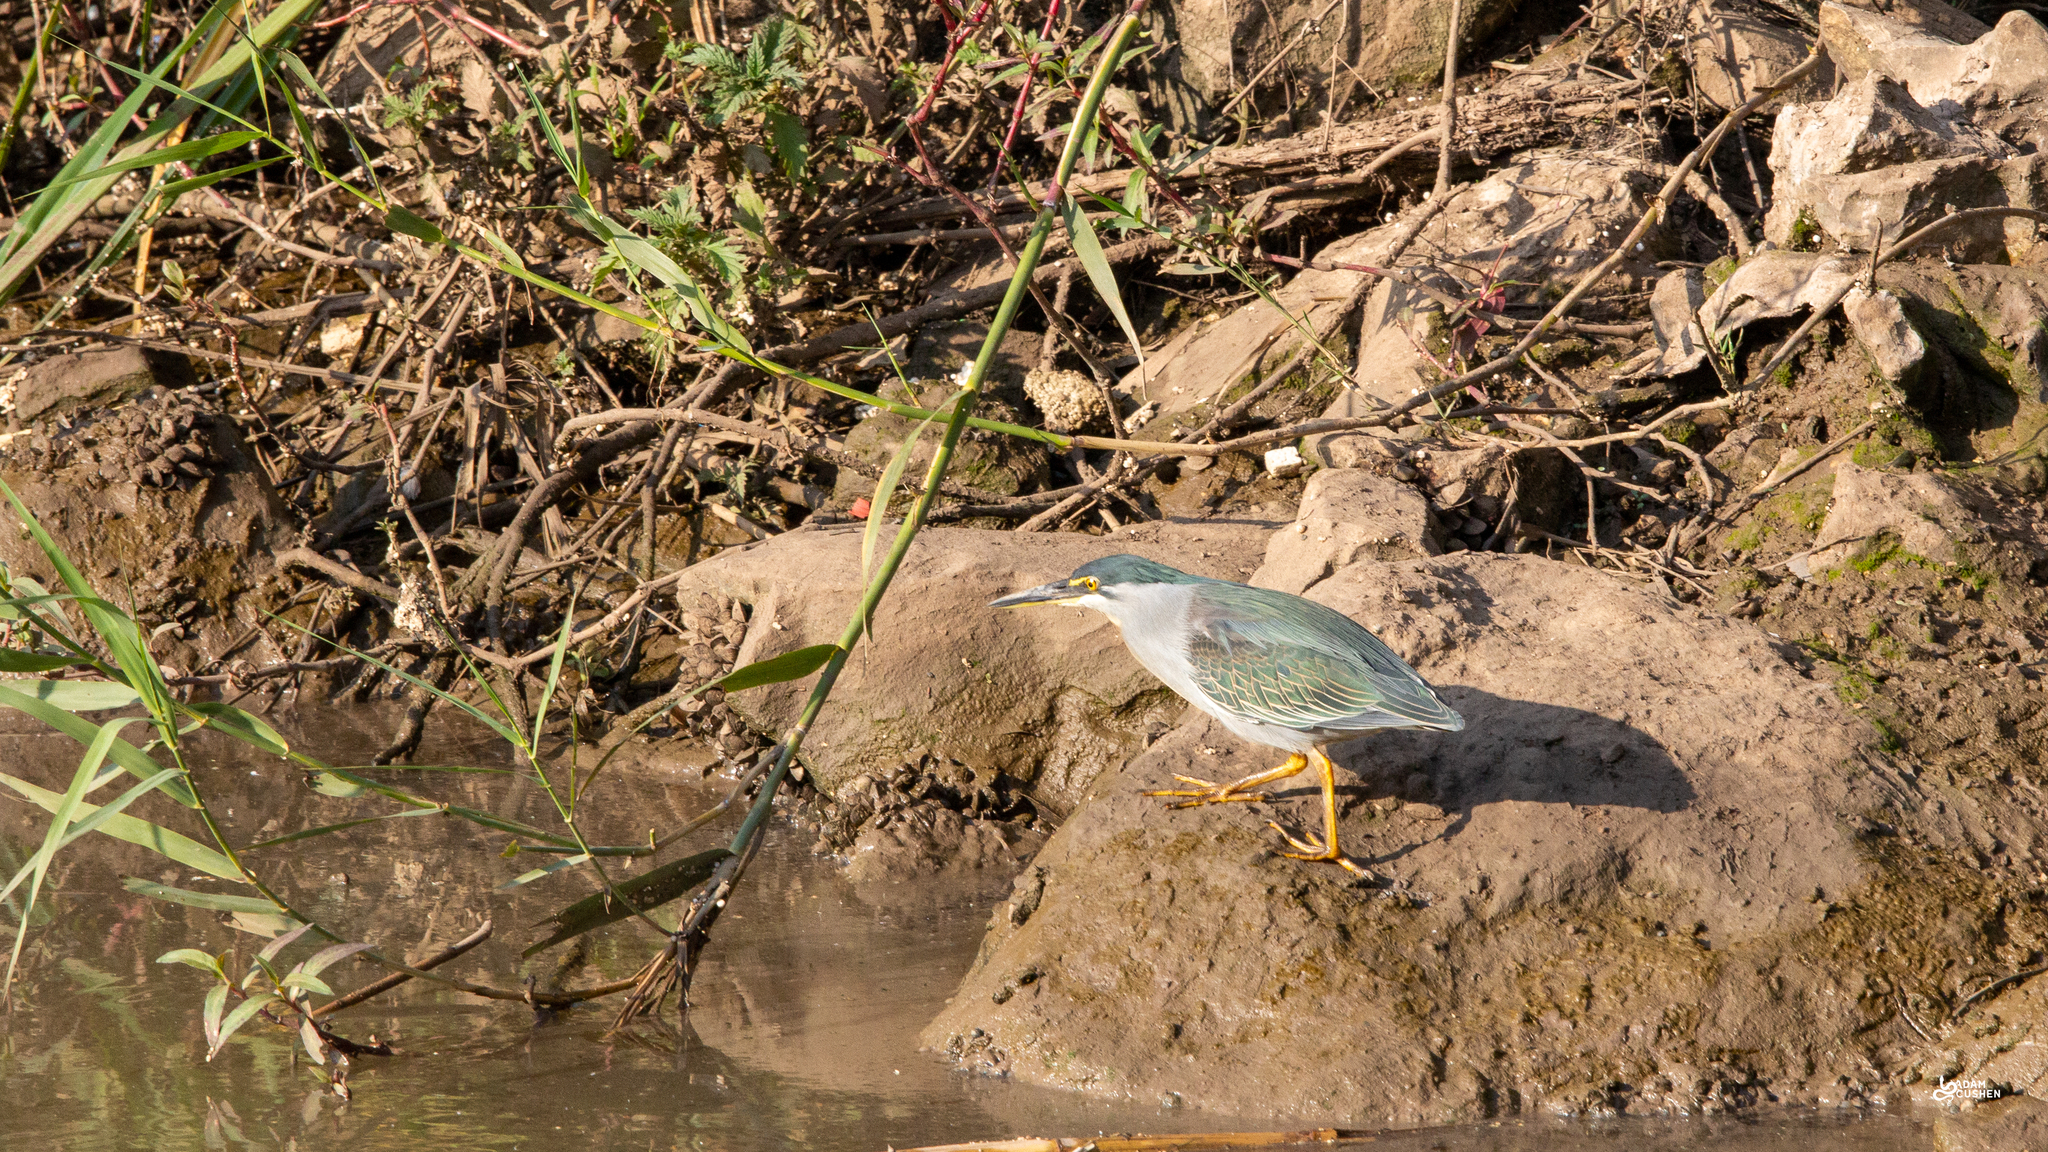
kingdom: Animalia
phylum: Chordata
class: Aves
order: Pelecaniformes
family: Ardeidae
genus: Butorides
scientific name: Butorides striata
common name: Striated heron
